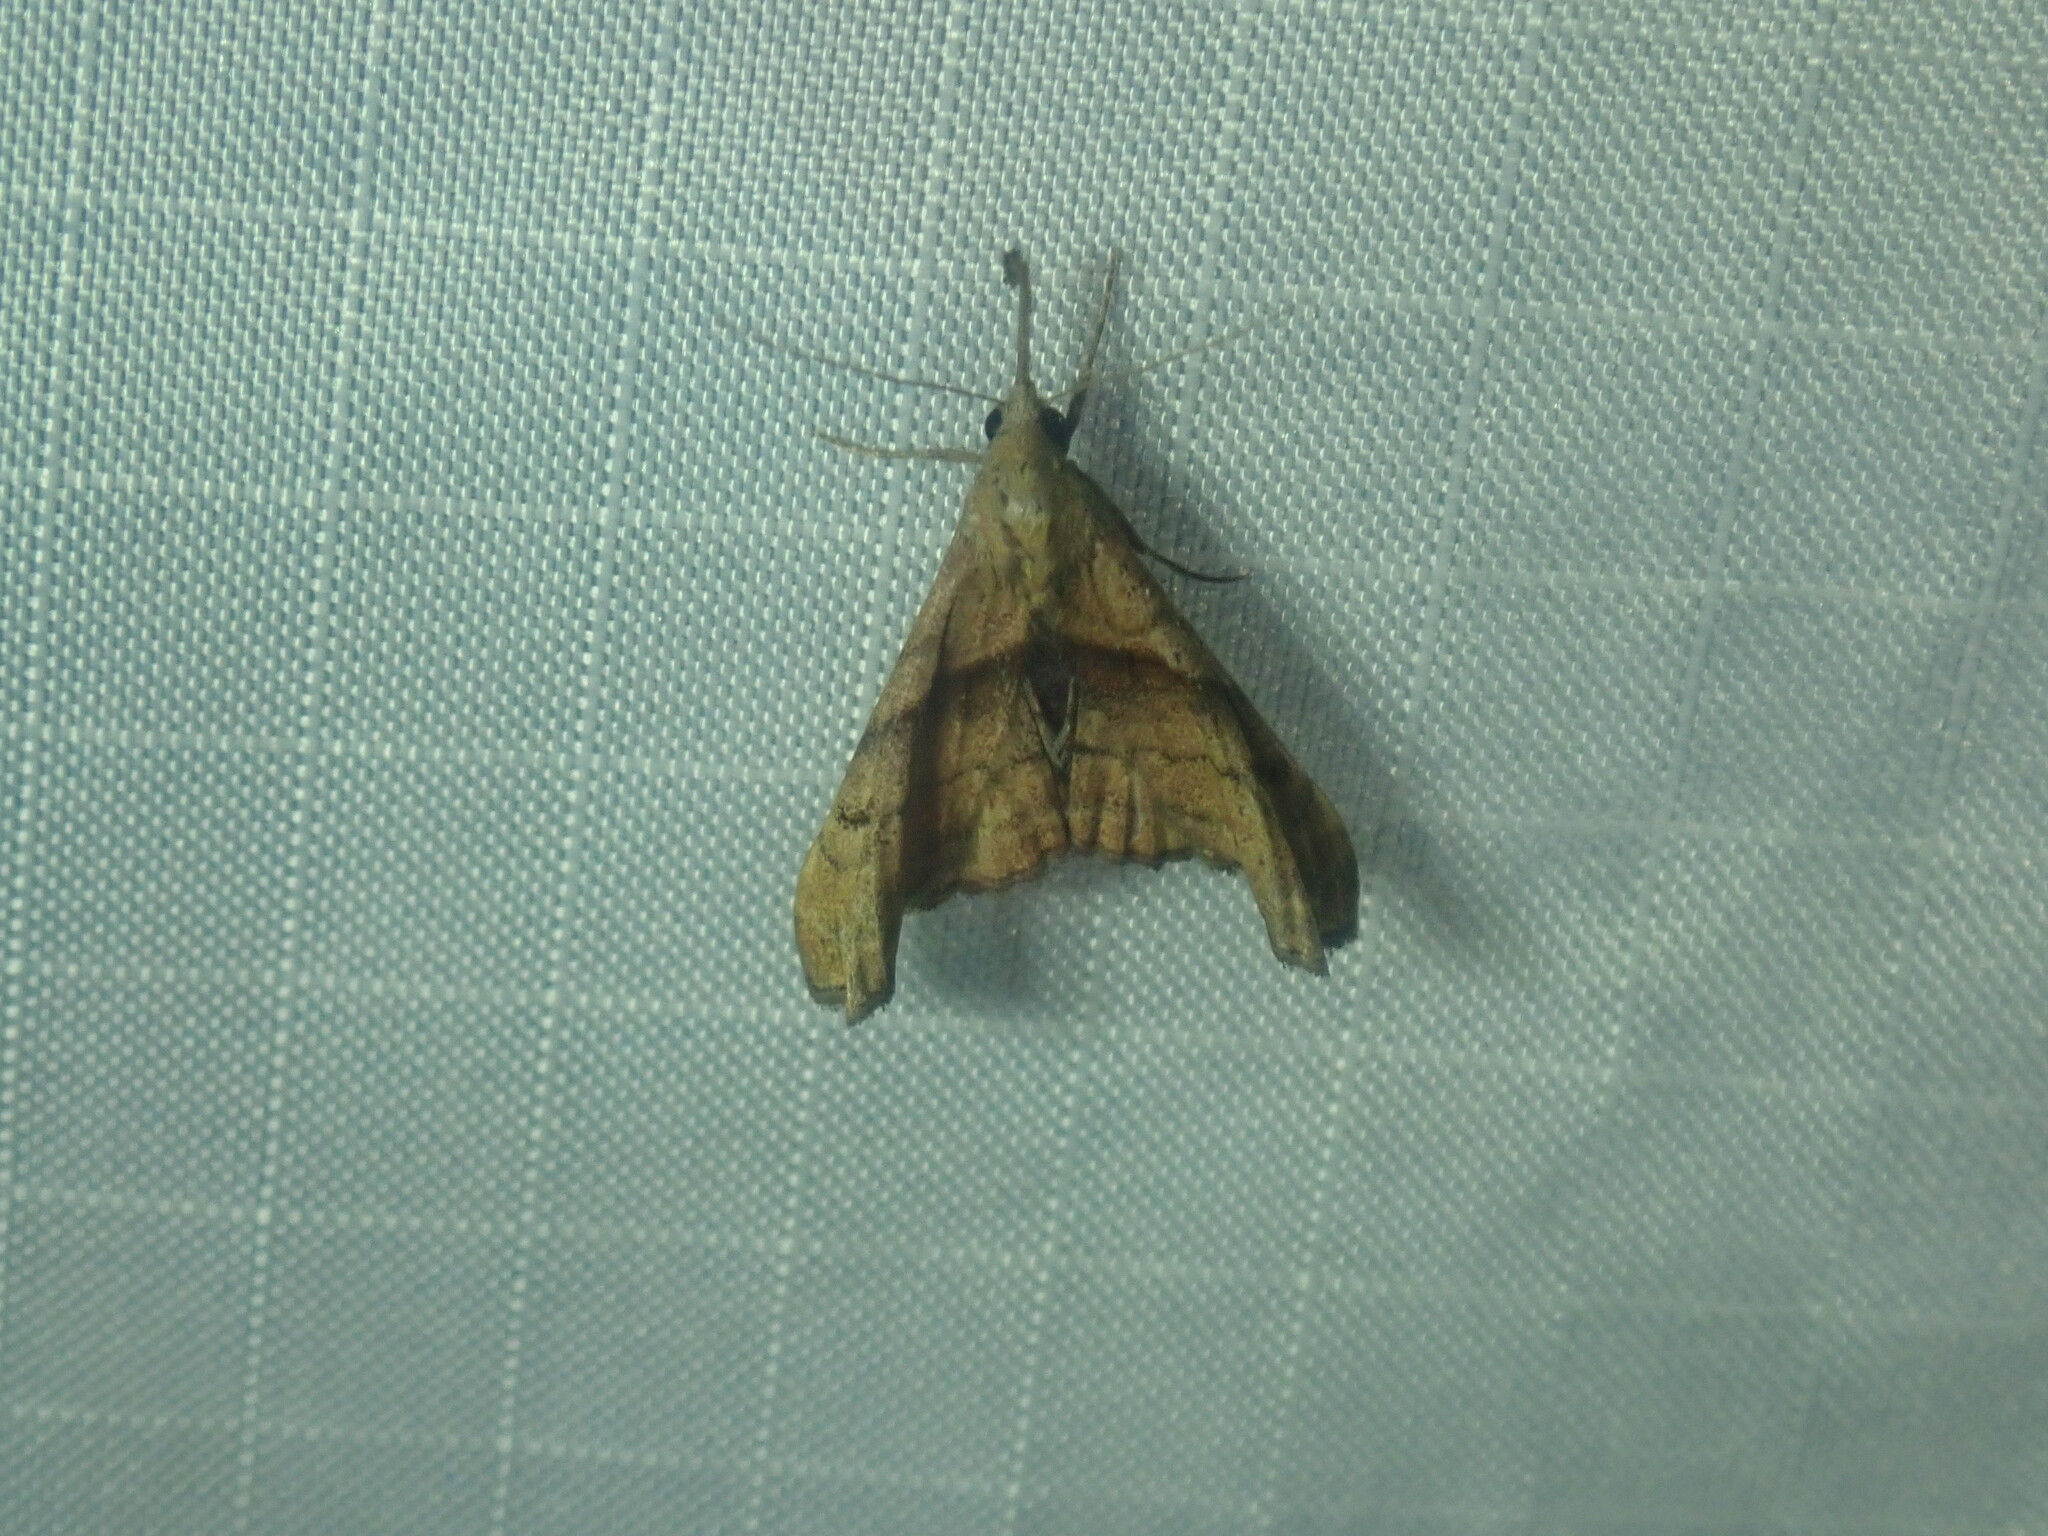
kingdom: Animalia
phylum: Arthropoda
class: Insecta
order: Lepidoptera
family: Erebidae
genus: Palthis
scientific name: Palthis angulalis
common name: Dark-spotted palthis moth
